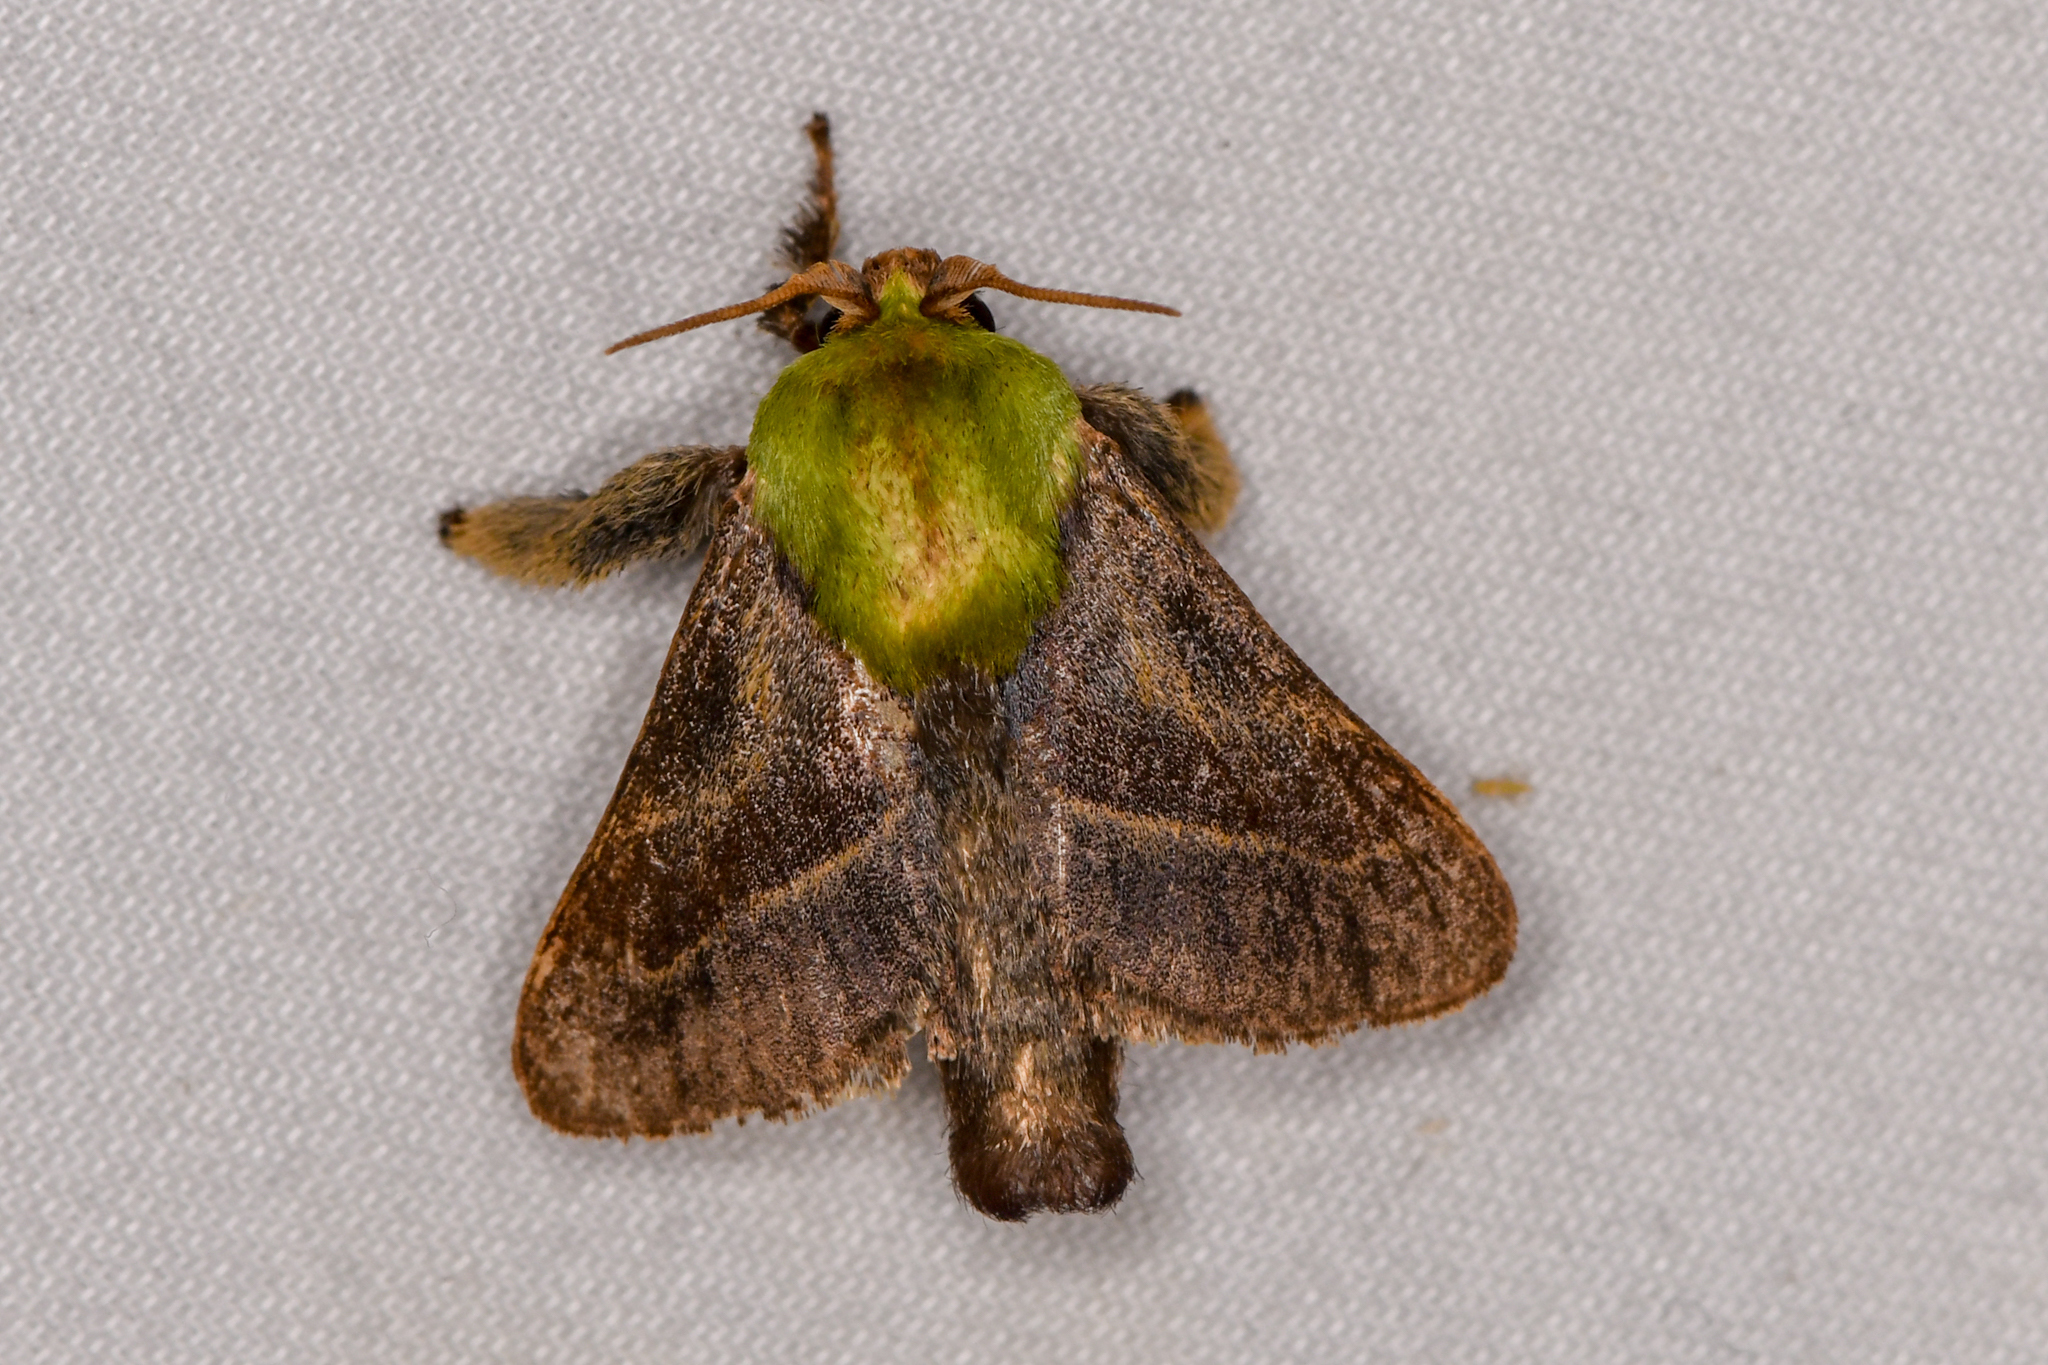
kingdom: Animalia
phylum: Arthropoda
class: Insecta
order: Lepidoptera
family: Limacodidae
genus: Parasa
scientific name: Parasa viridogrisea
